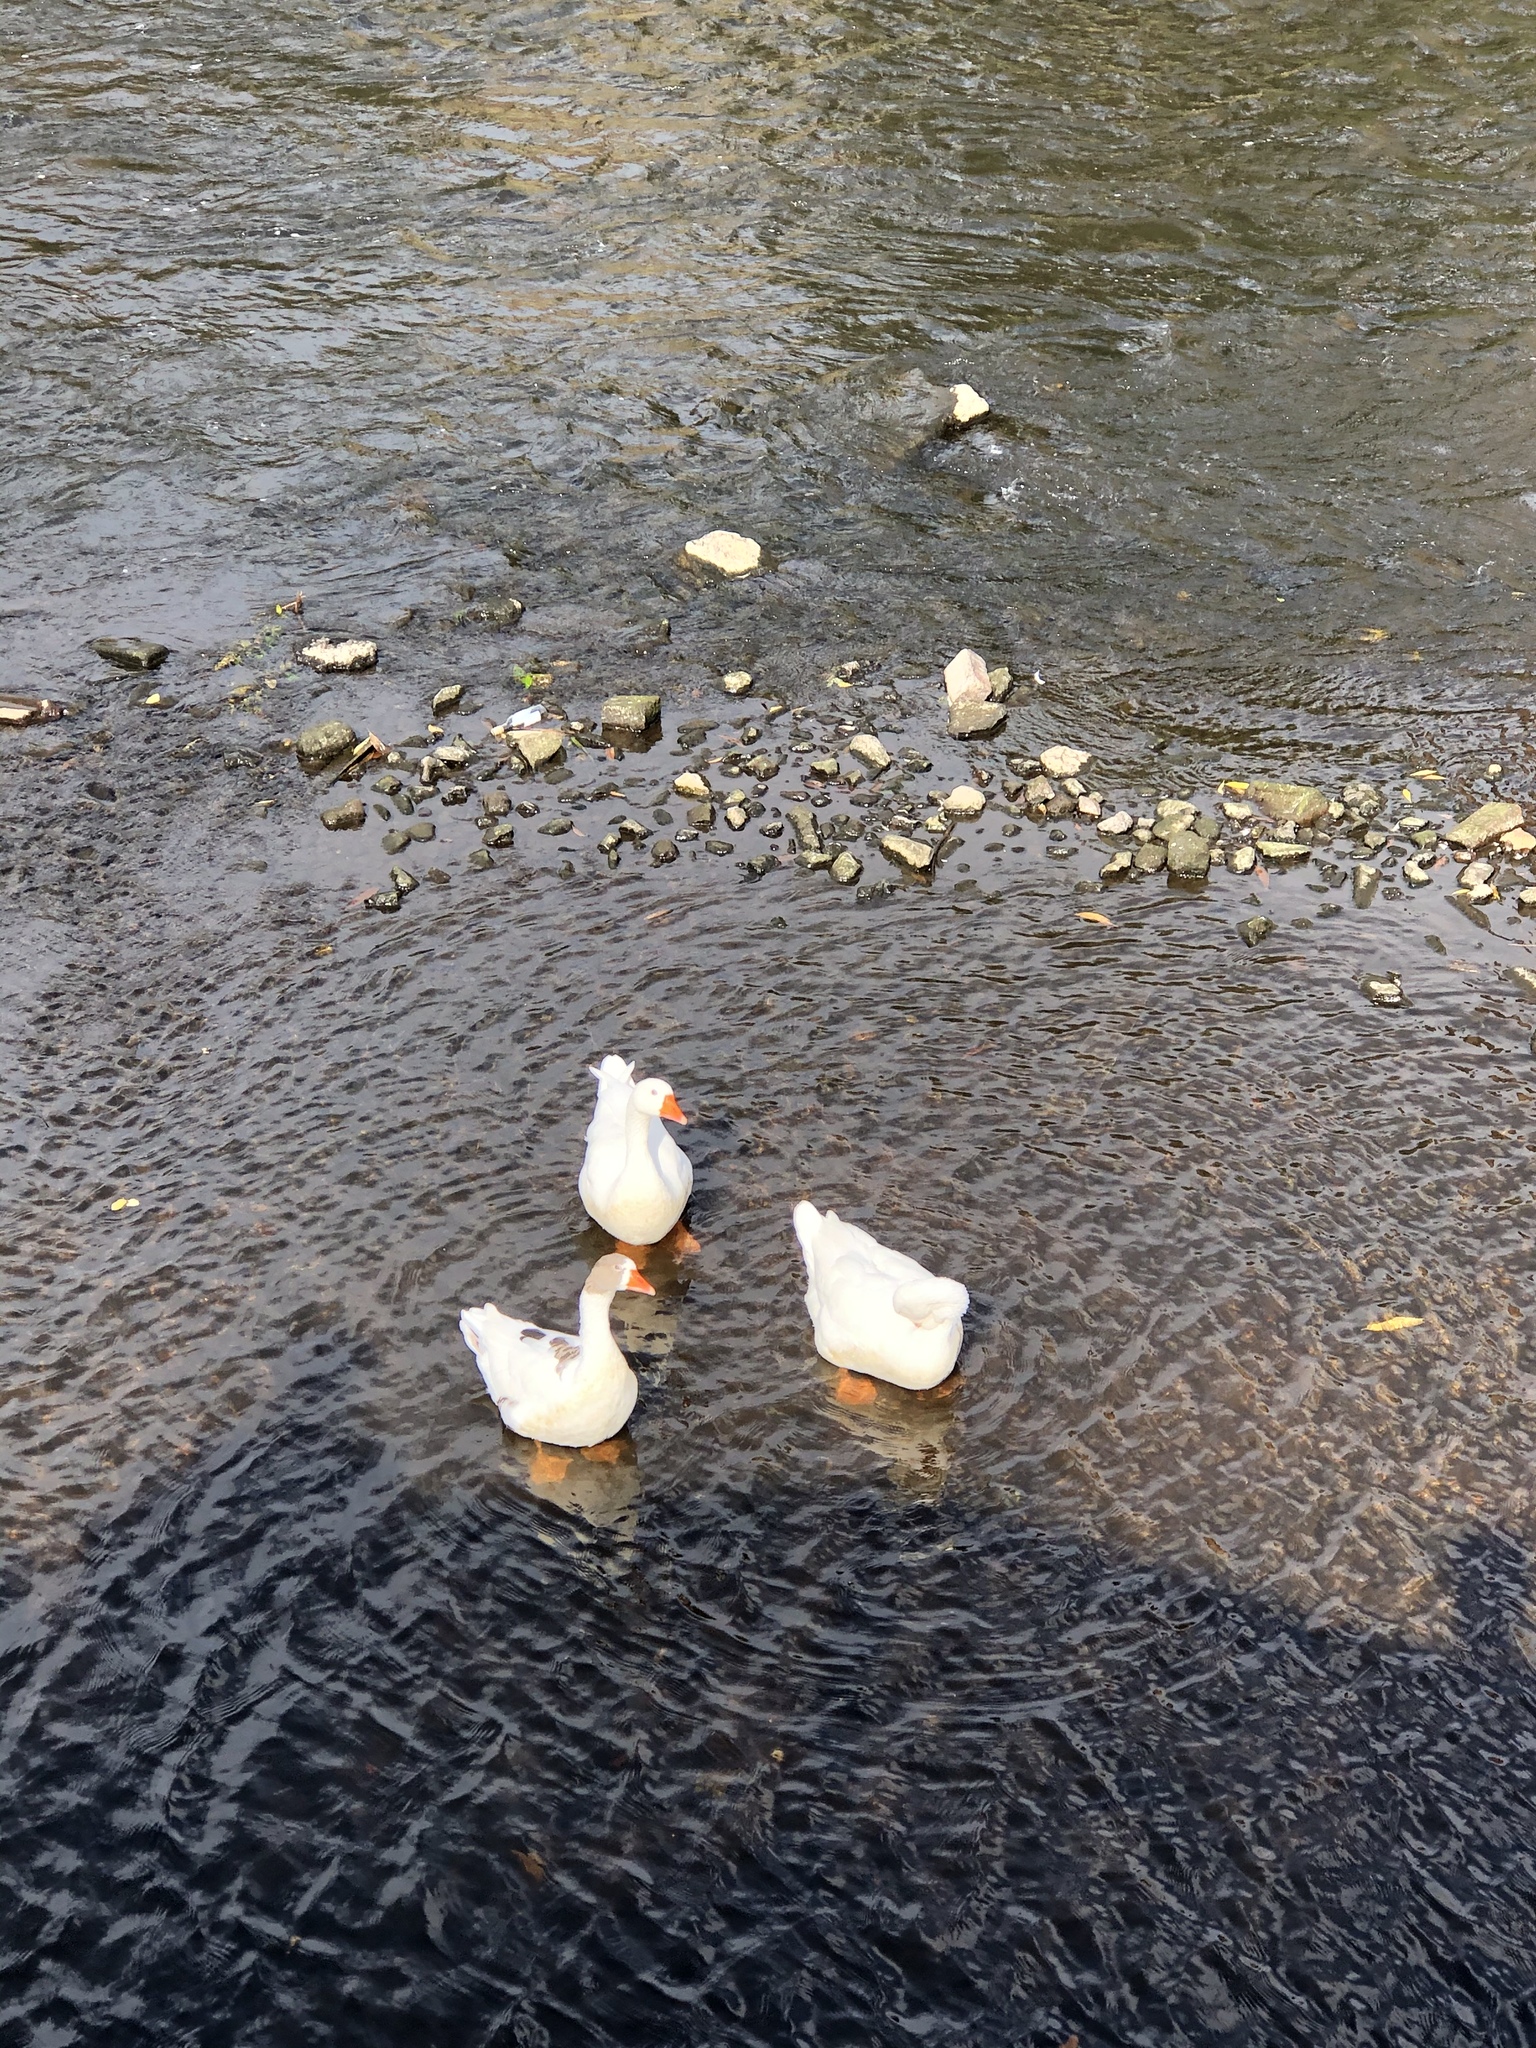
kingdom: Animalia
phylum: Chordata
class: Aves
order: Anseriformes
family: Anatidae
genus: Anser
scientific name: Anser anser
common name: Greylag goose
